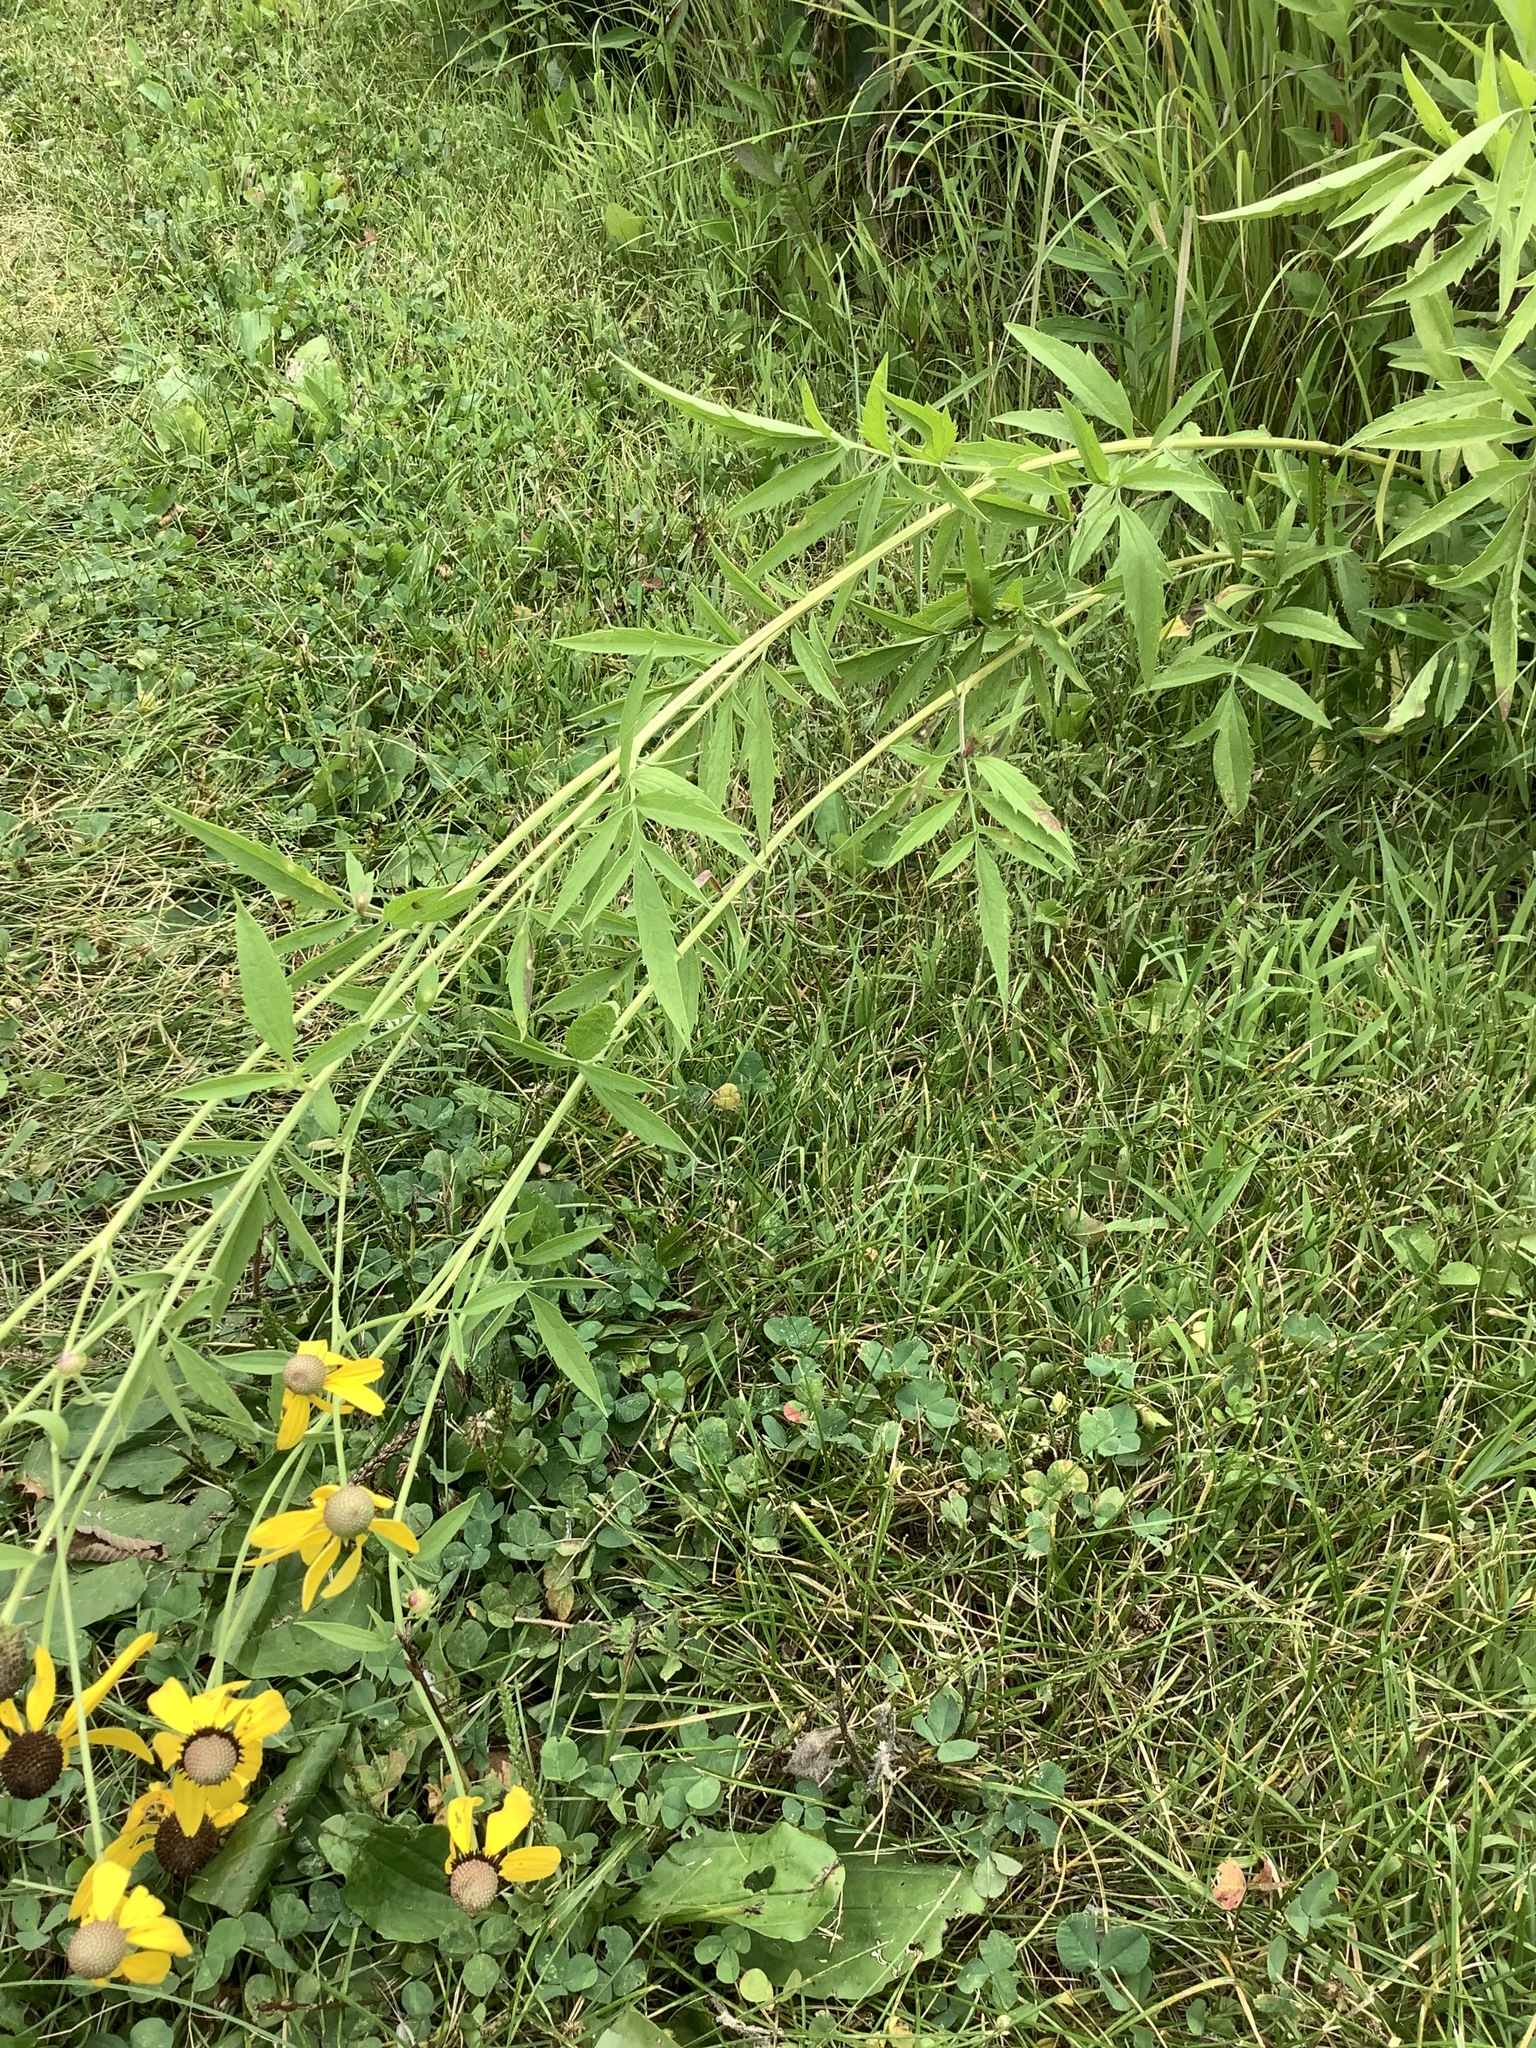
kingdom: Plantae
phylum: Tracheophyta
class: Magnoliopsida
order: Asterales
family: Asteraceae
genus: Ratibida
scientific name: Ratibida pinnata
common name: Drooping prairie-coneflower
